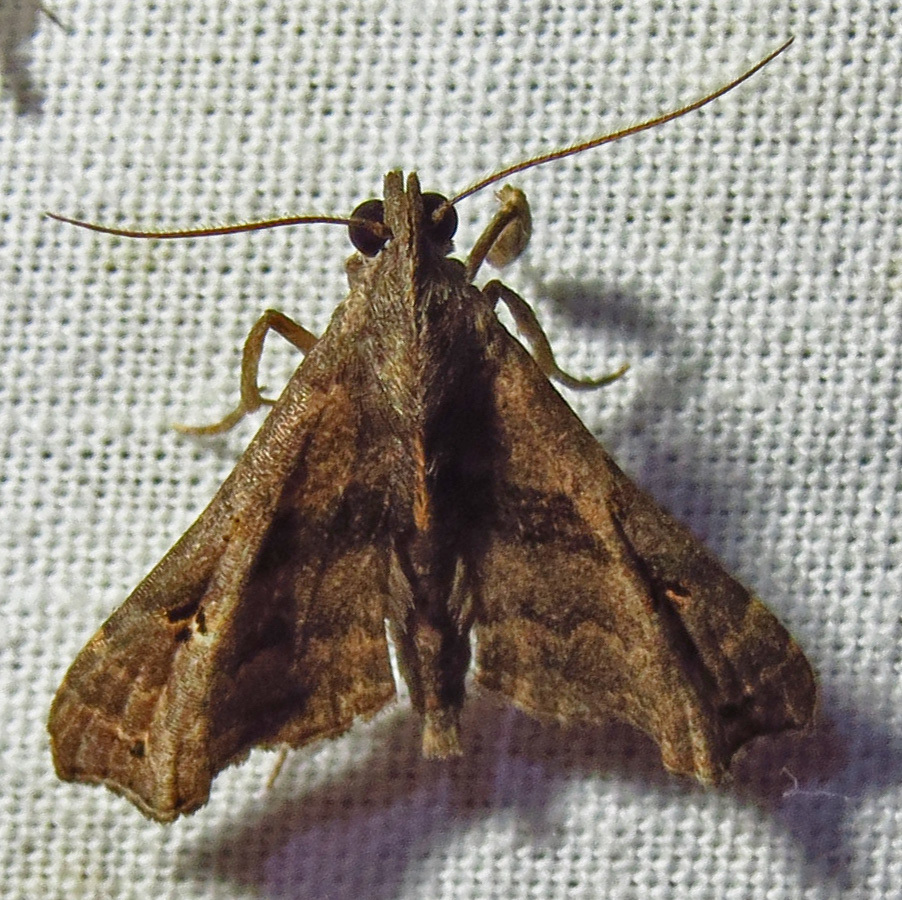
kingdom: Animalia
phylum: Arthropoda
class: Insecta
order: Lepidoptera
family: Erebidae
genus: Palthis
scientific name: Palthis asopialis
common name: Faint-spotted palthis moth
